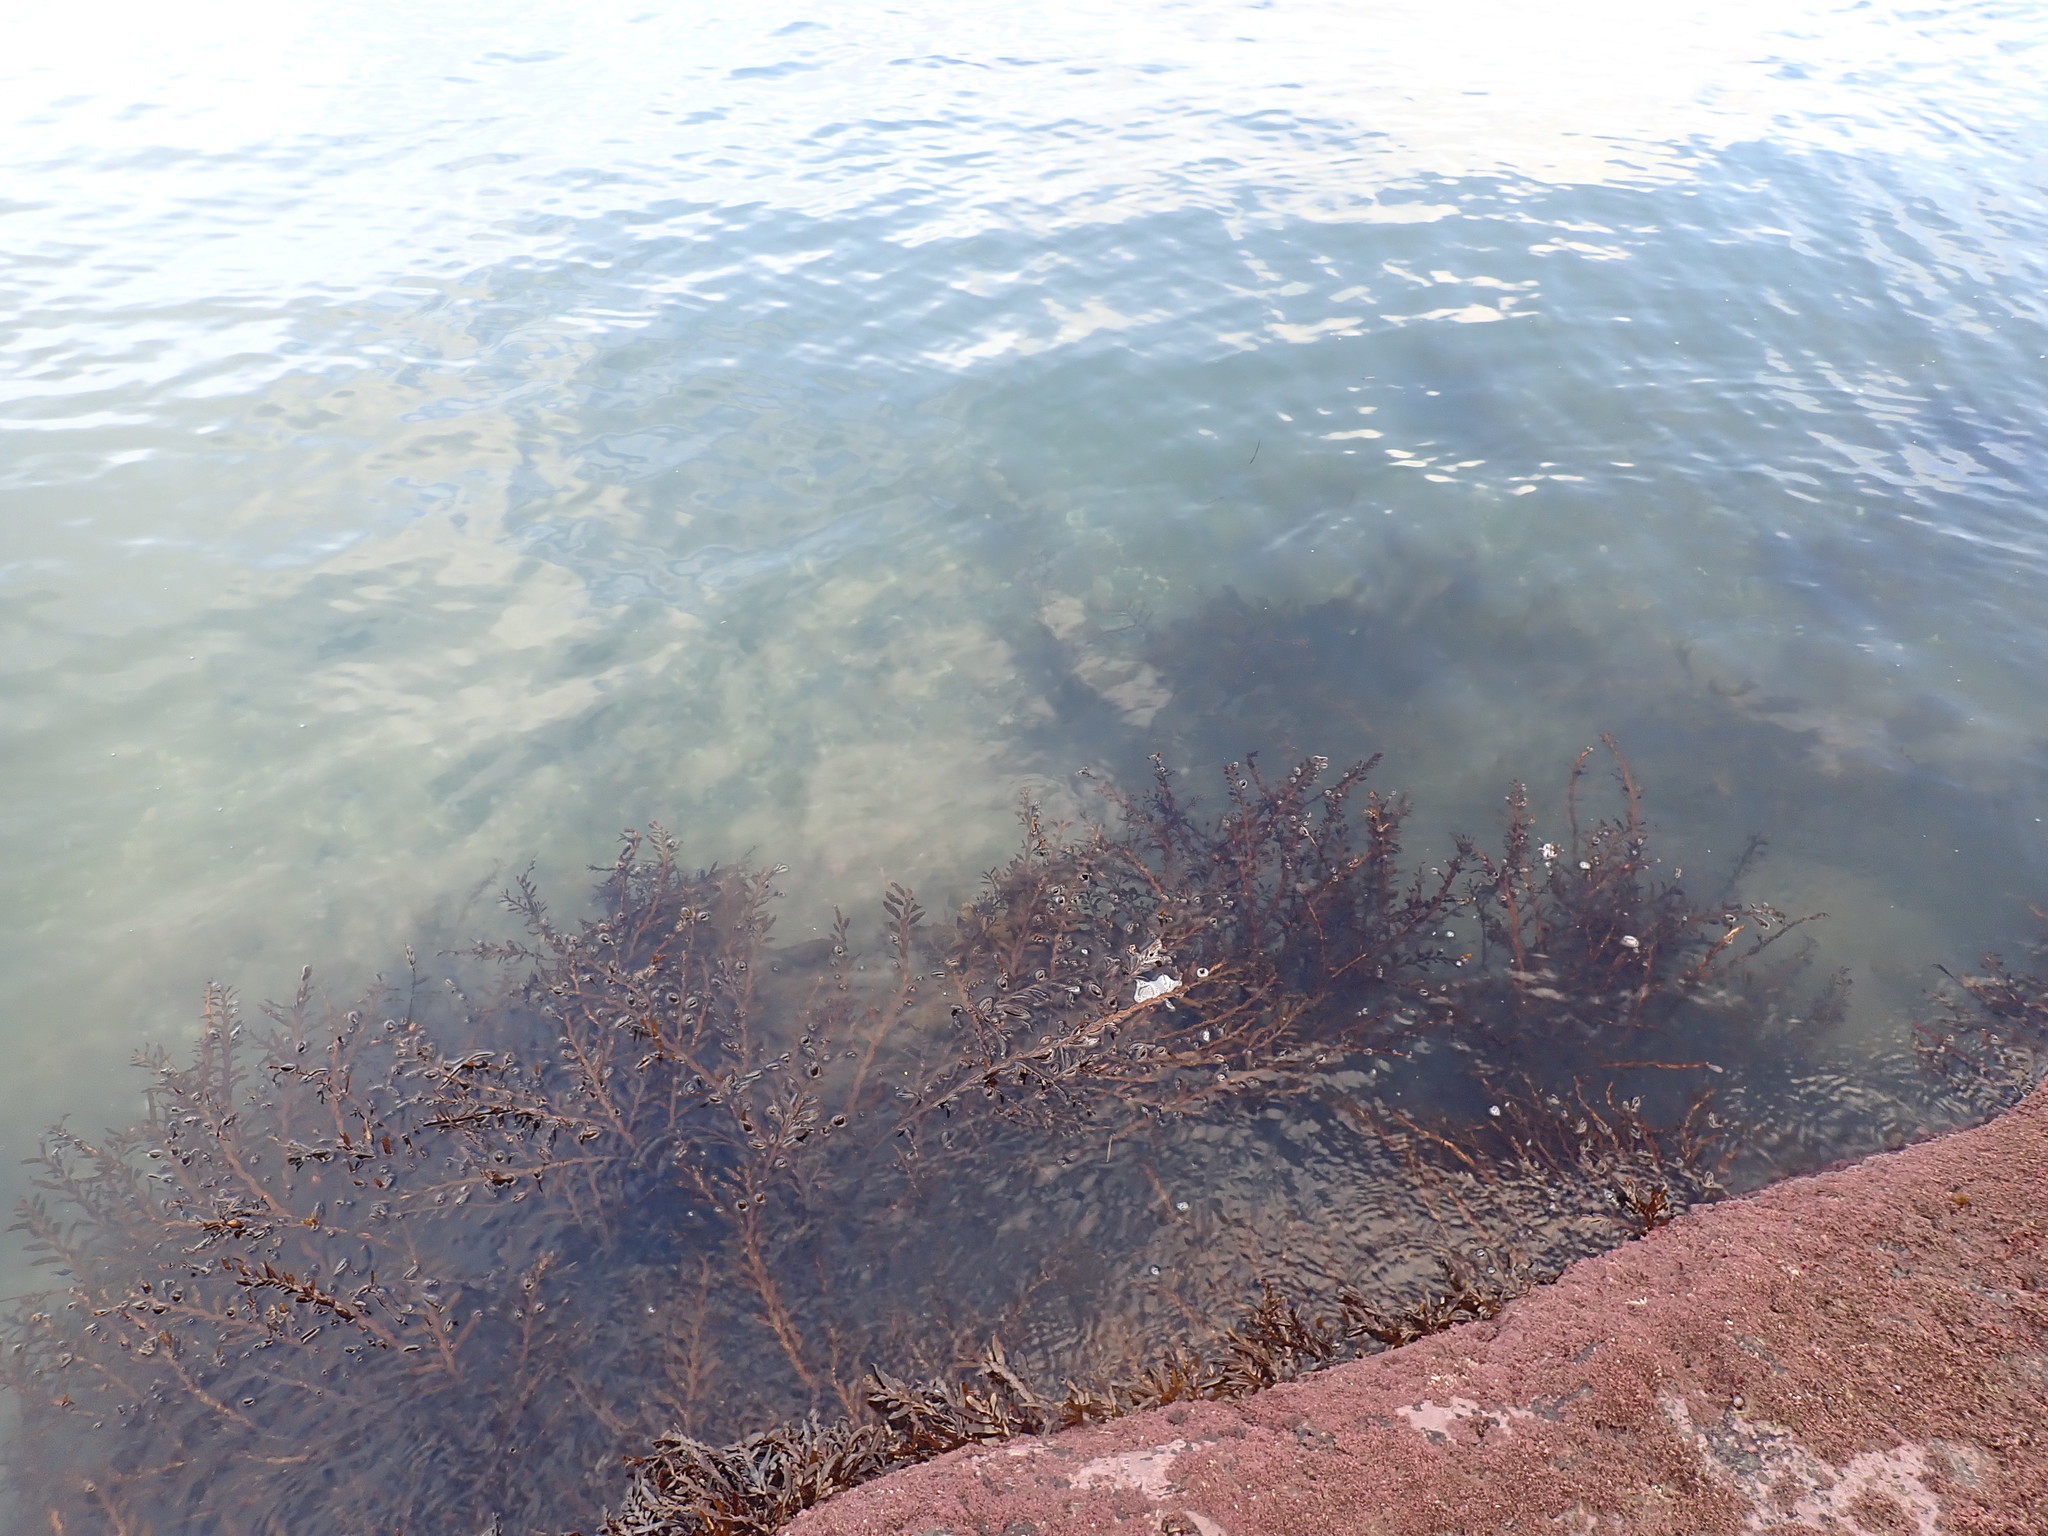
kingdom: Chromista
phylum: Ochrophyta
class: Phaeophyceae
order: Fucales
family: Sargassaceae
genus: Carpophyllum
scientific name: Carpophyllum maschalocarpum
